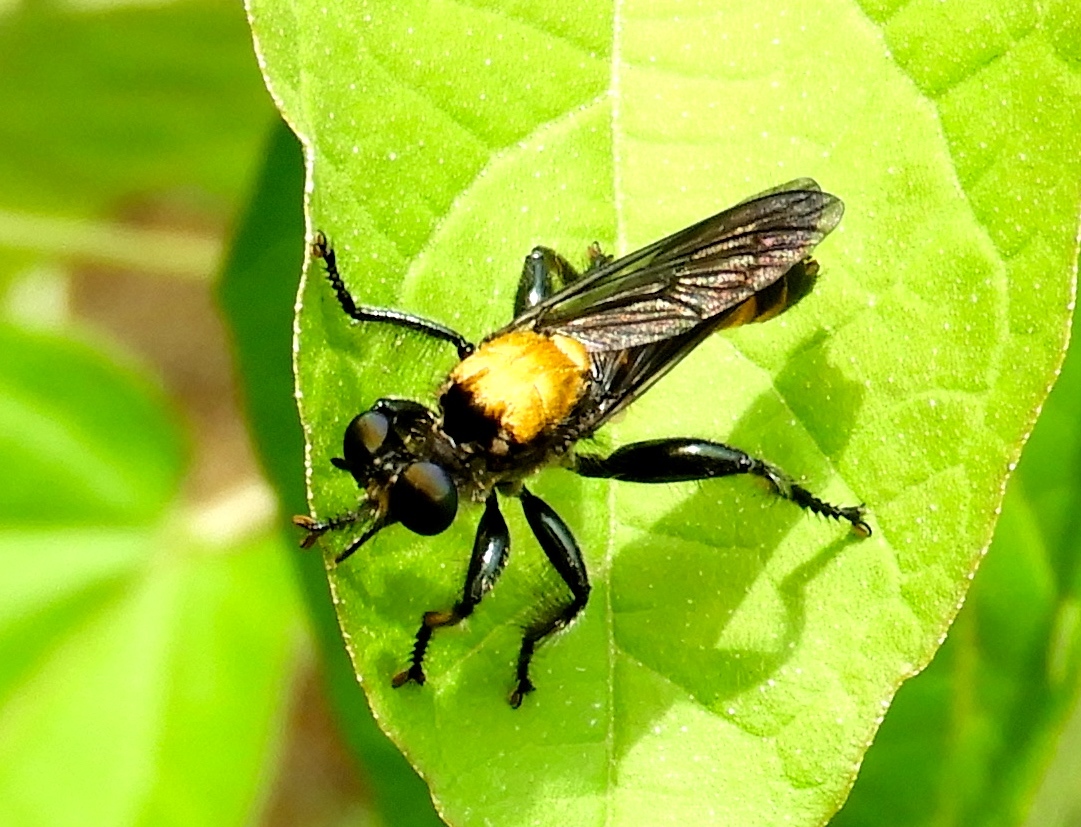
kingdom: Animalia
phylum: Arthropoda
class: Insecta
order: Diptera
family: Asilidae
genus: Lampria
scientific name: Lampria
